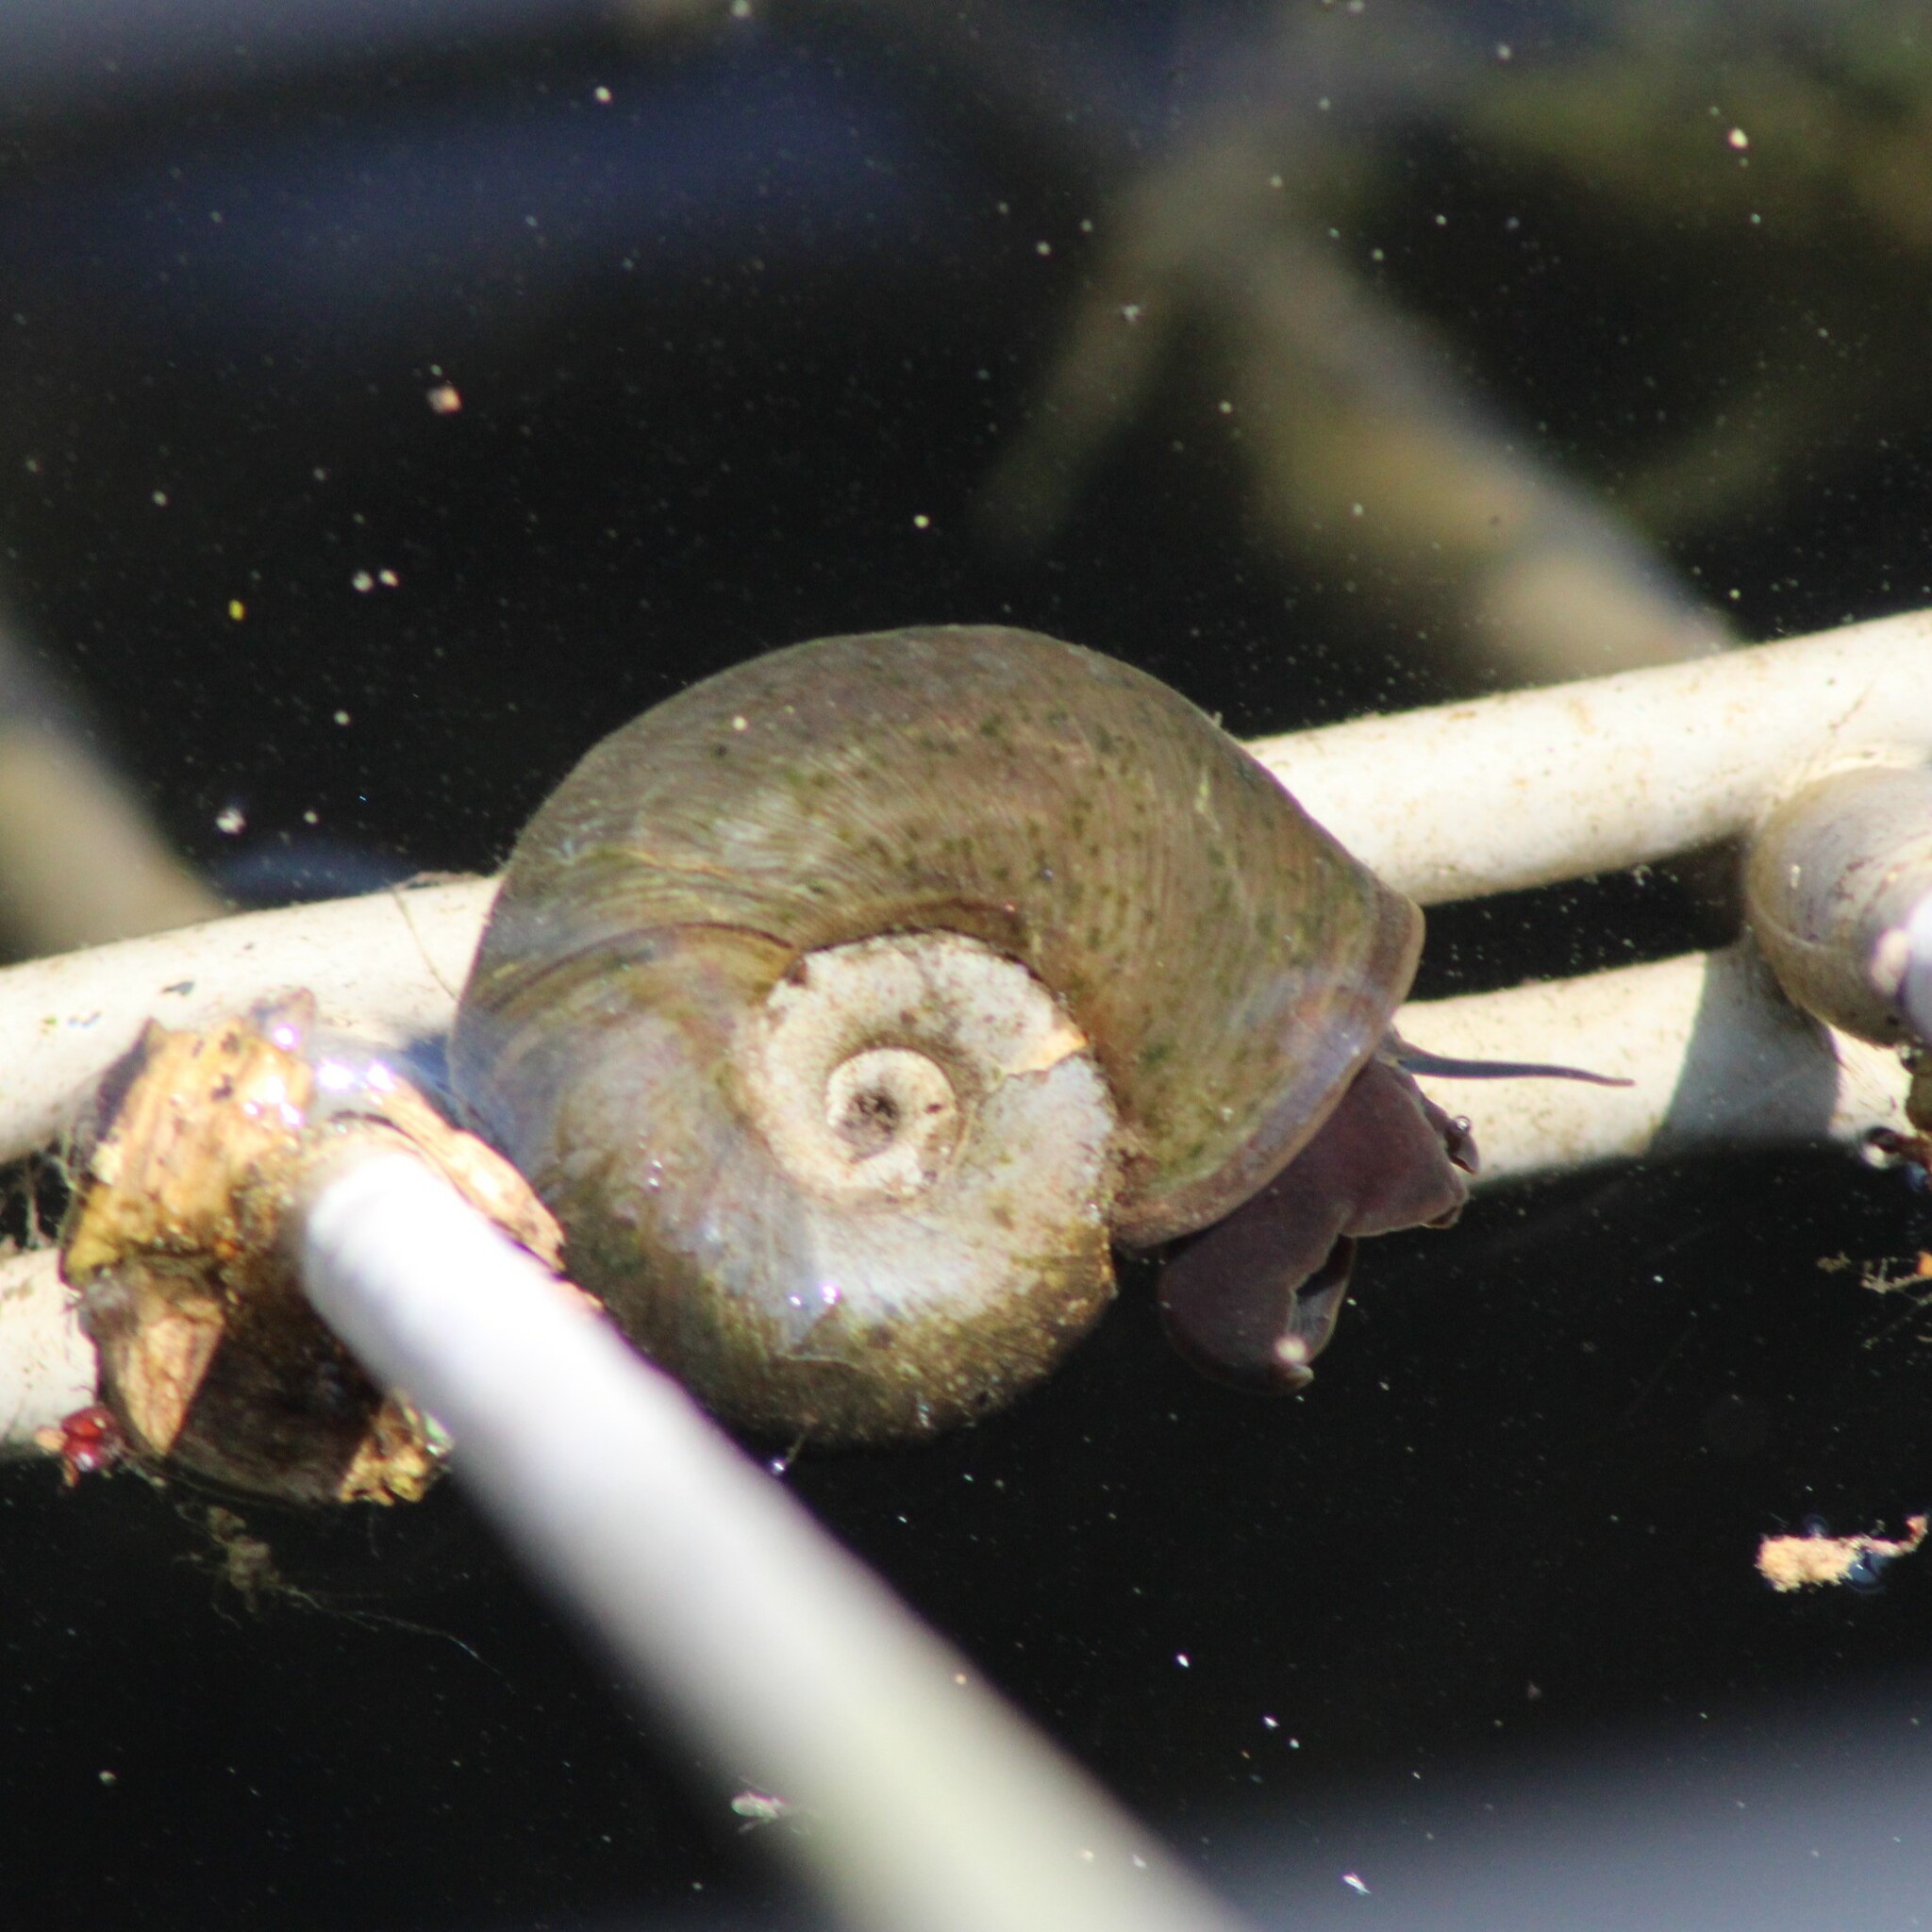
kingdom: Animalia
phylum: Mollusca
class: Gastropoda
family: Planorbidae
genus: Planorbarius
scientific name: Planorbarius corneus
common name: Great ramshorn
